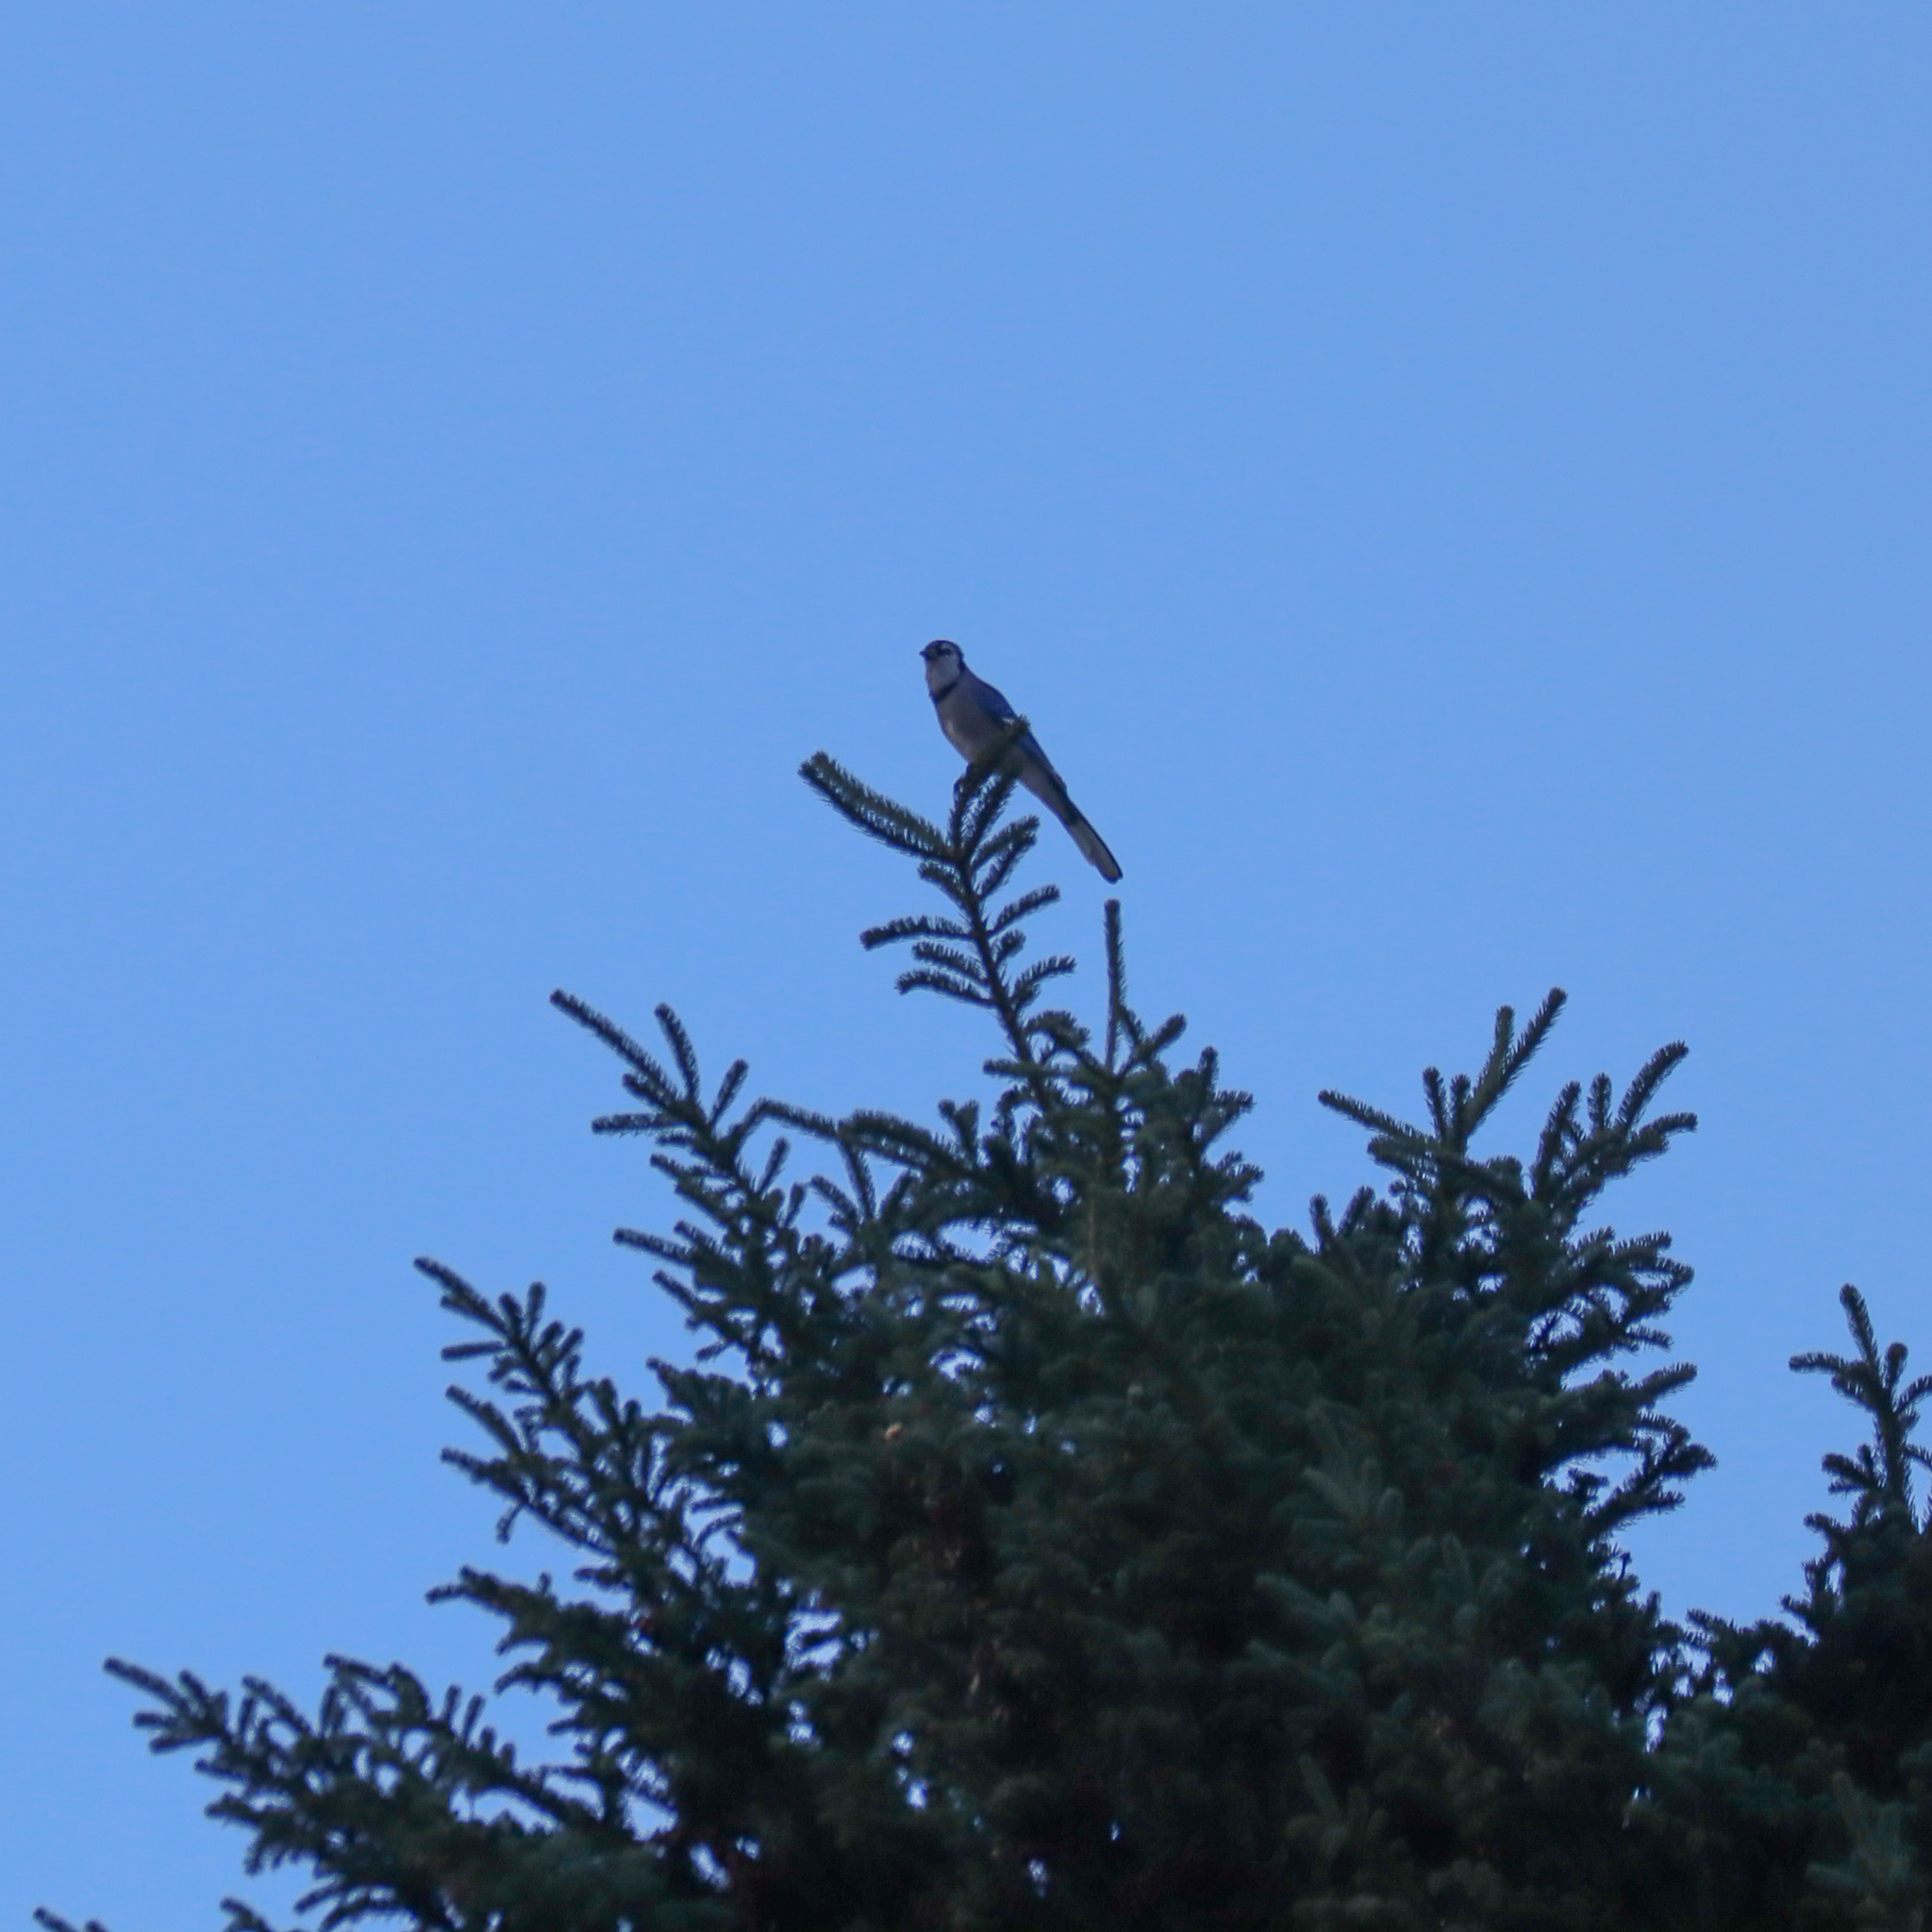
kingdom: Animalia
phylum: Chordata
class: Aves
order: Passeriformes
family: Corvidae
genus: Cyanocitta
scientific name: Cyanocitta cristata
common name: Blue jay
